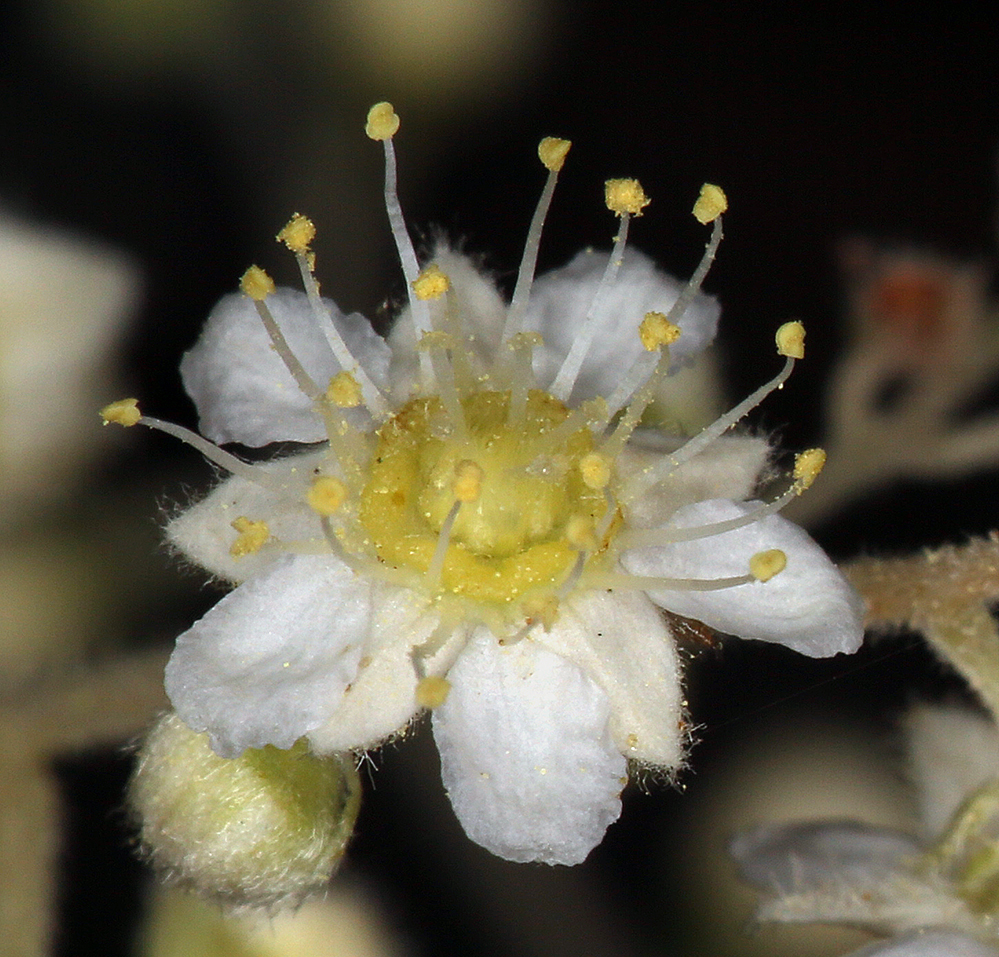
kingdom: Plantae
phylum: Tracheophyta
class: Magnoliopsida
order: Rosales
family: Rosaceae
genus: Holodiscus
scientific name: Holodiscus discolor
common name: Oceanspray
